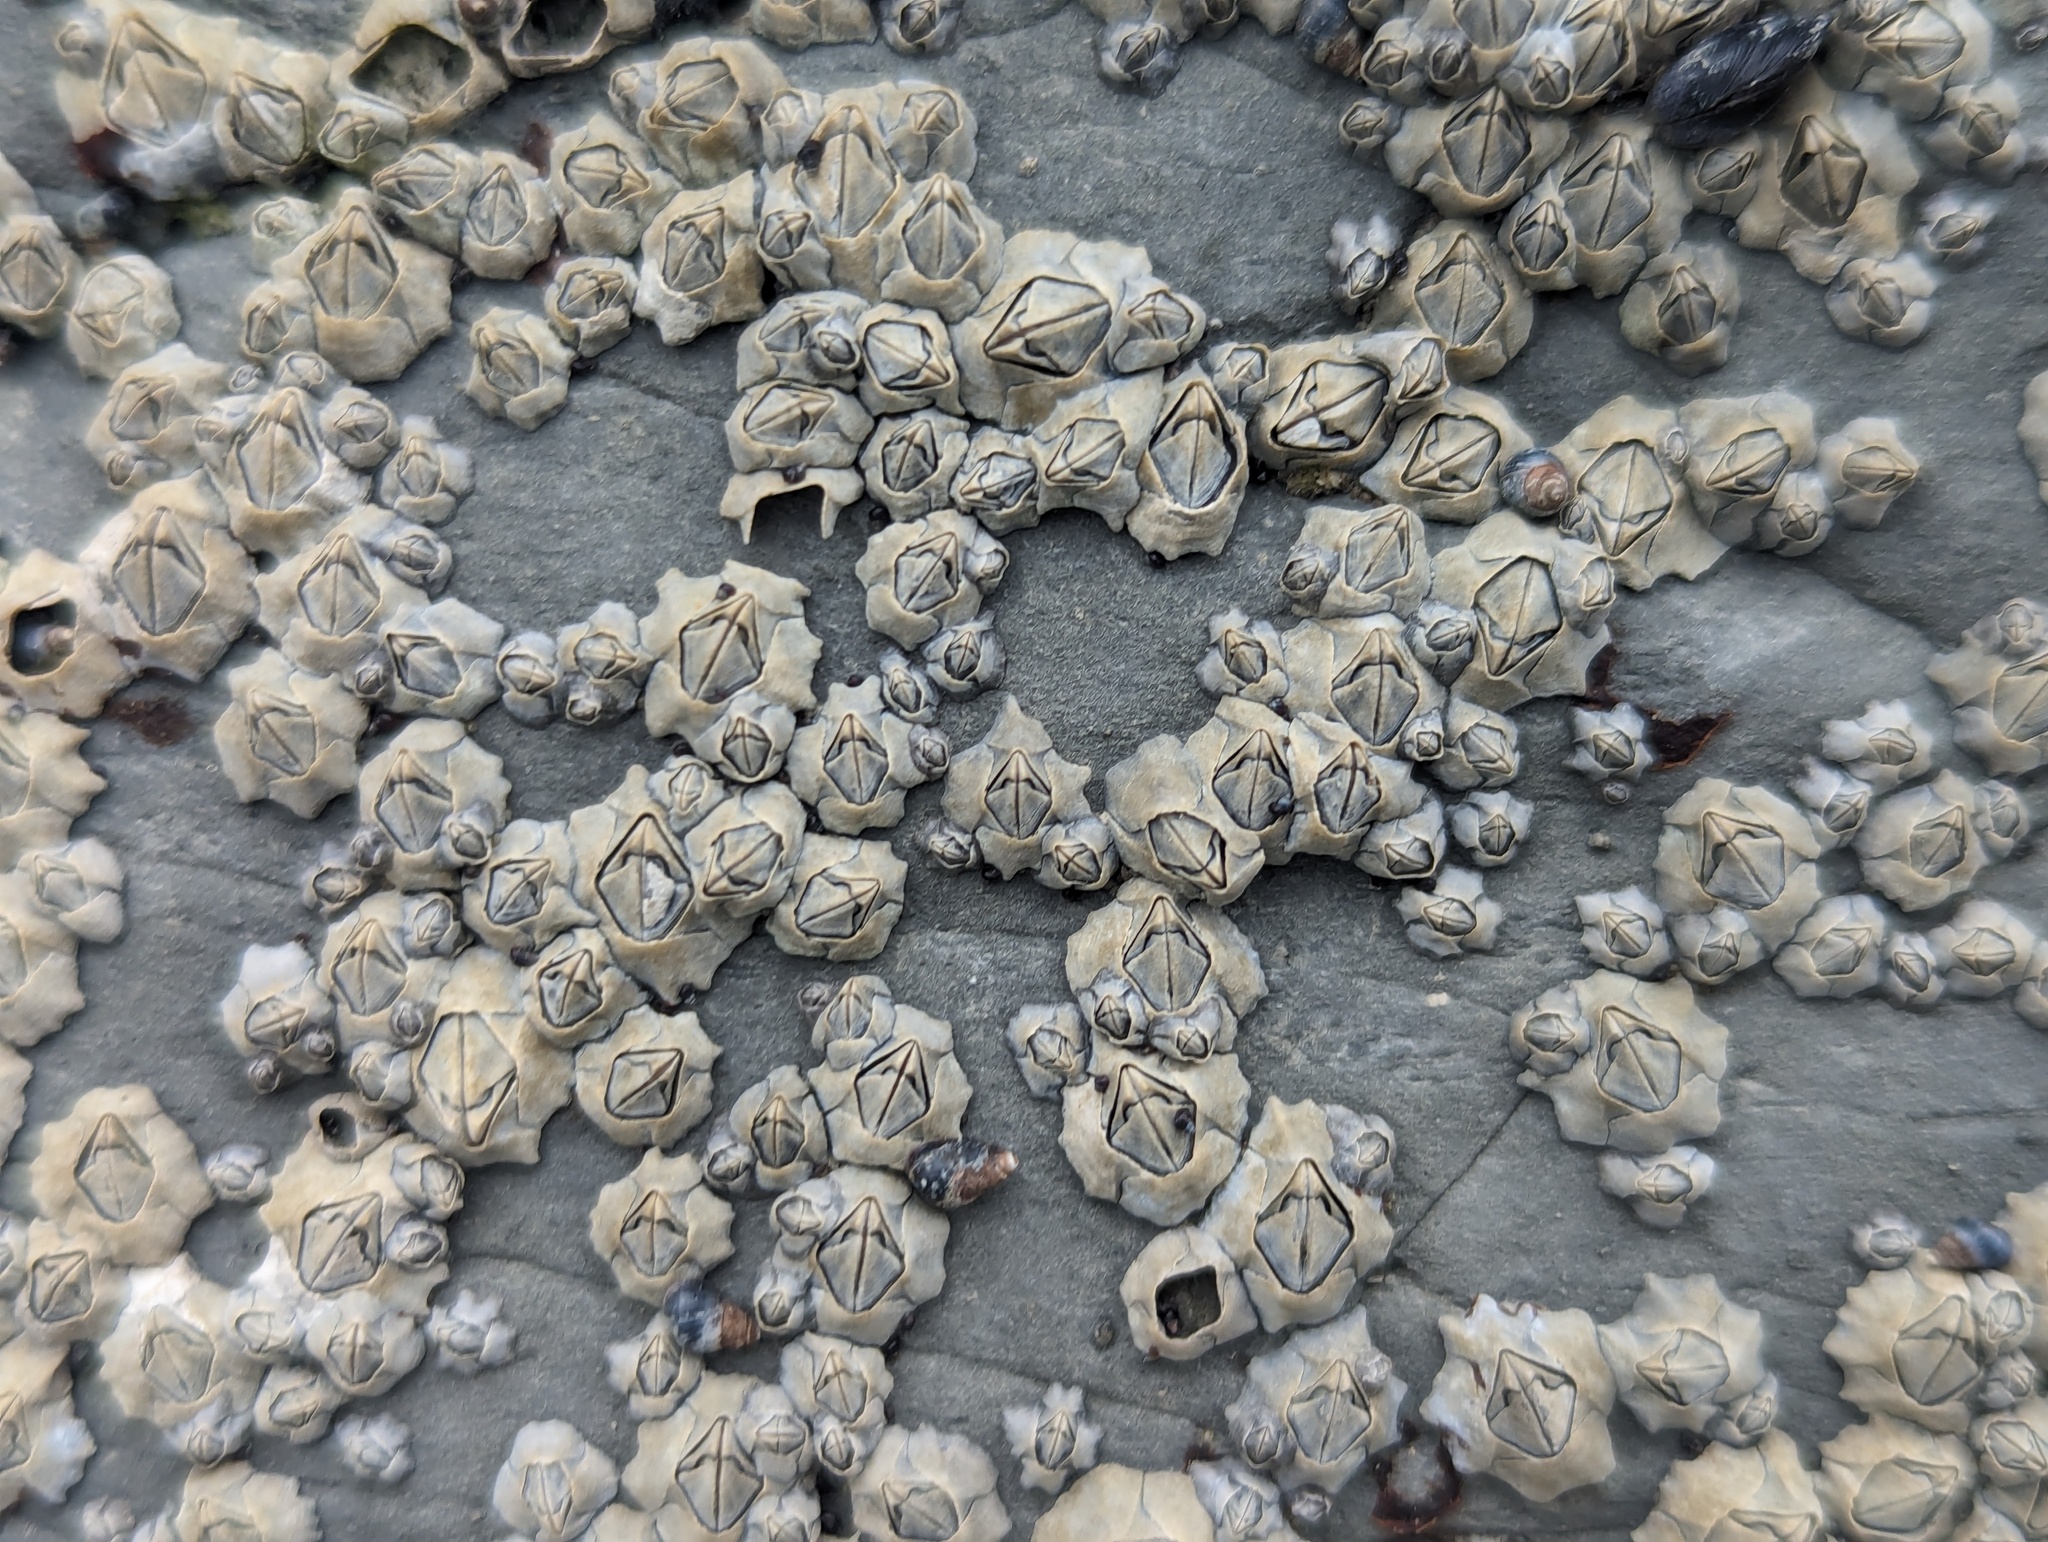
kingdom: Animalia
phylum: Arthropoda
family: Elminiidae
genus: Austrominius
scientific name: Austrominius modestus
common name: Australasian barnacle
